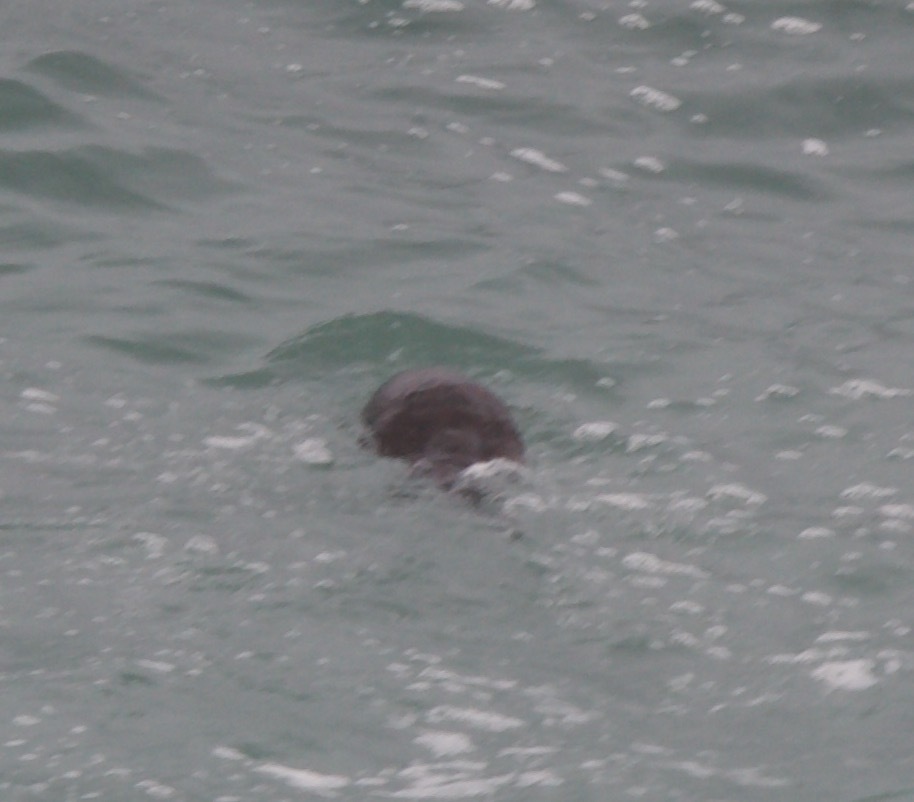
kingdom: Animalia
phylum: Chordata
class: Mammalia
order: Carnivora
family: Mustelidae
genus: Lontra
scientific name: Lontra felina
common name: Marine otter
